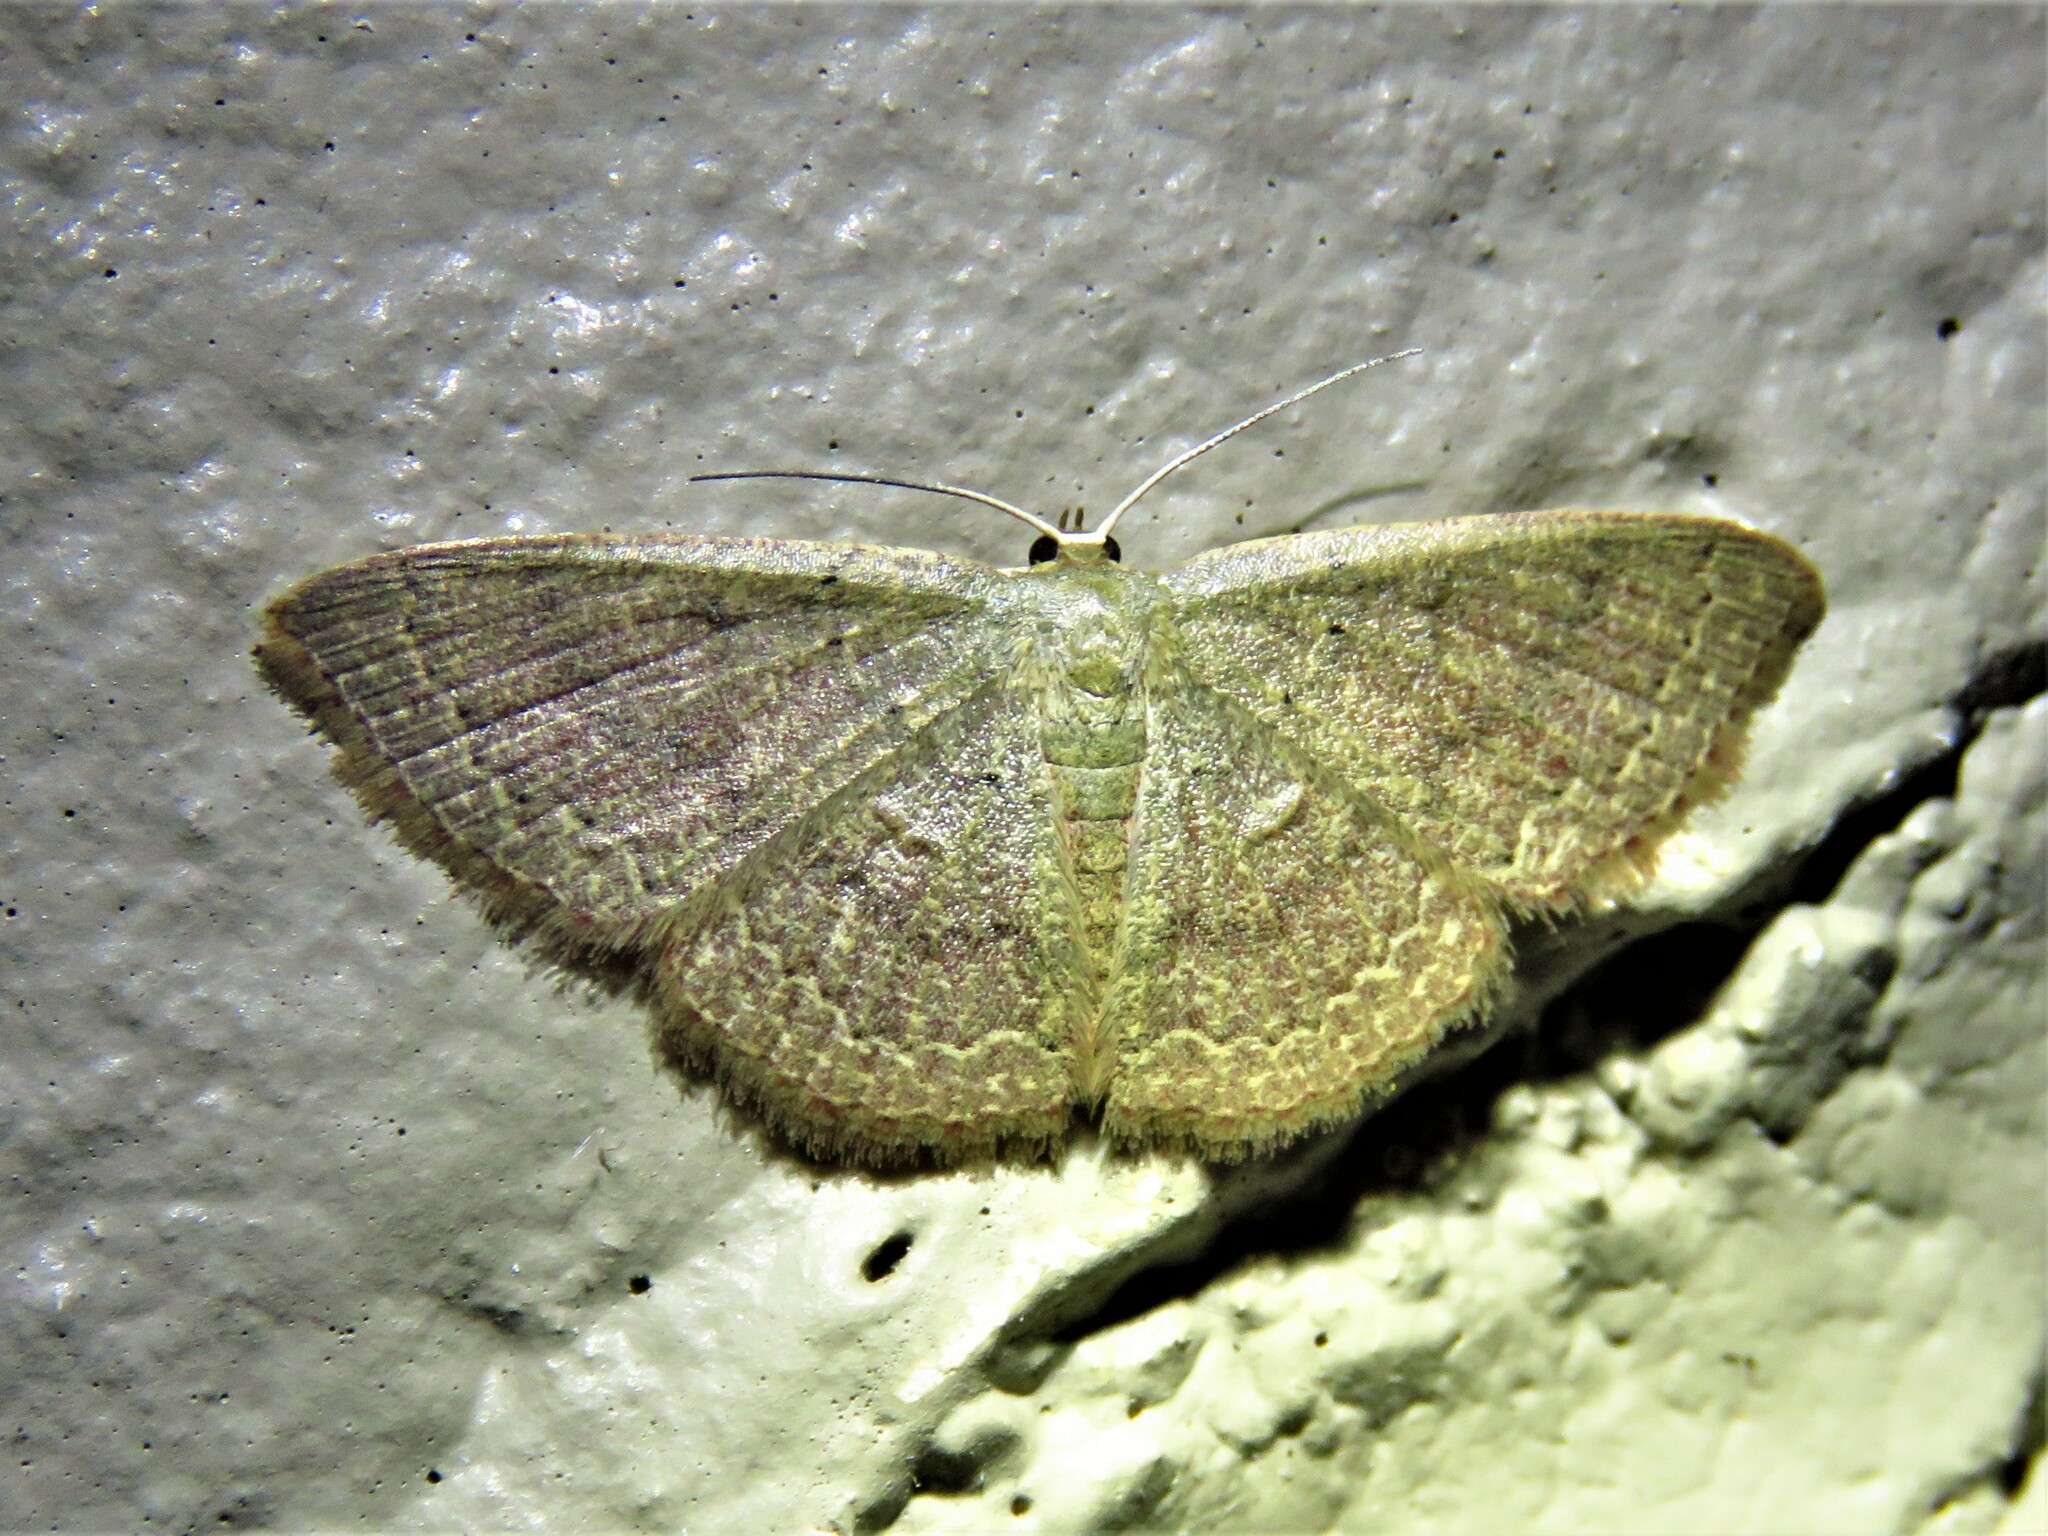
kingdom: Animalia
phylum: Arthropoda
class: Insecta
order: Lepidoptera
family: Geometridae
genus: Pleuroprucha
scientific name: Pleuroprucha insulsaria
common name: Common tan wave
